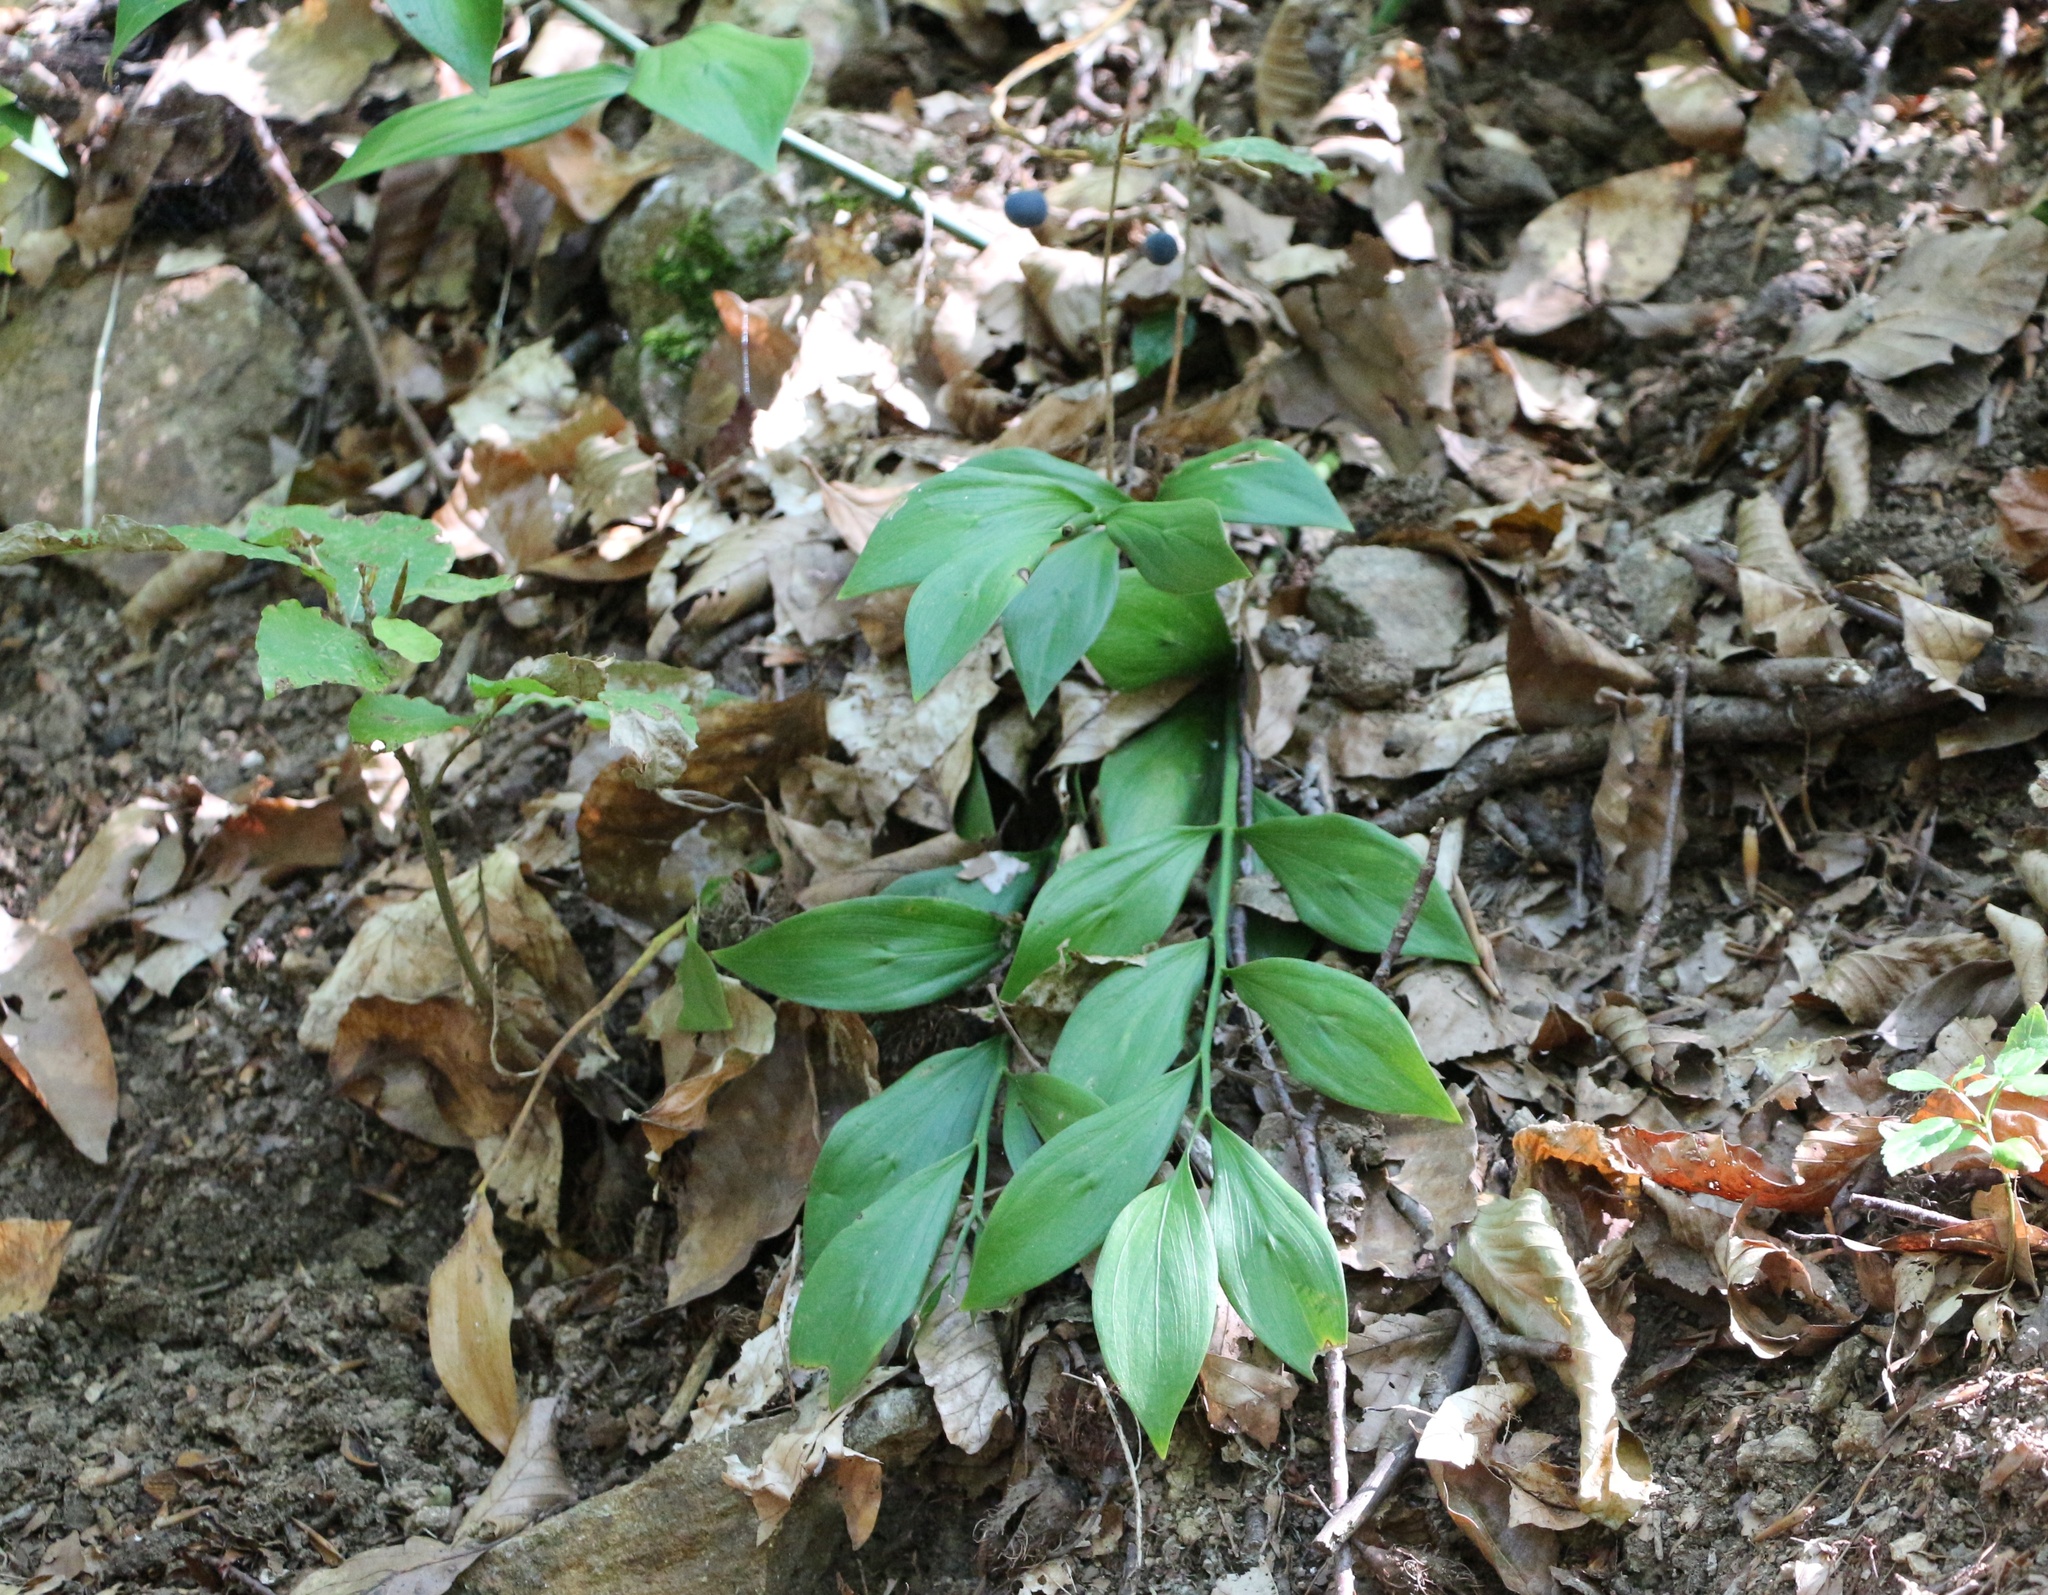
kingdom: Plantae
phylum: Tracheophyta
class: Liliopsida
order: Asparagales
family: Asparagaceae
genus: Ruscus
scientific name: Ruscus colchicus
